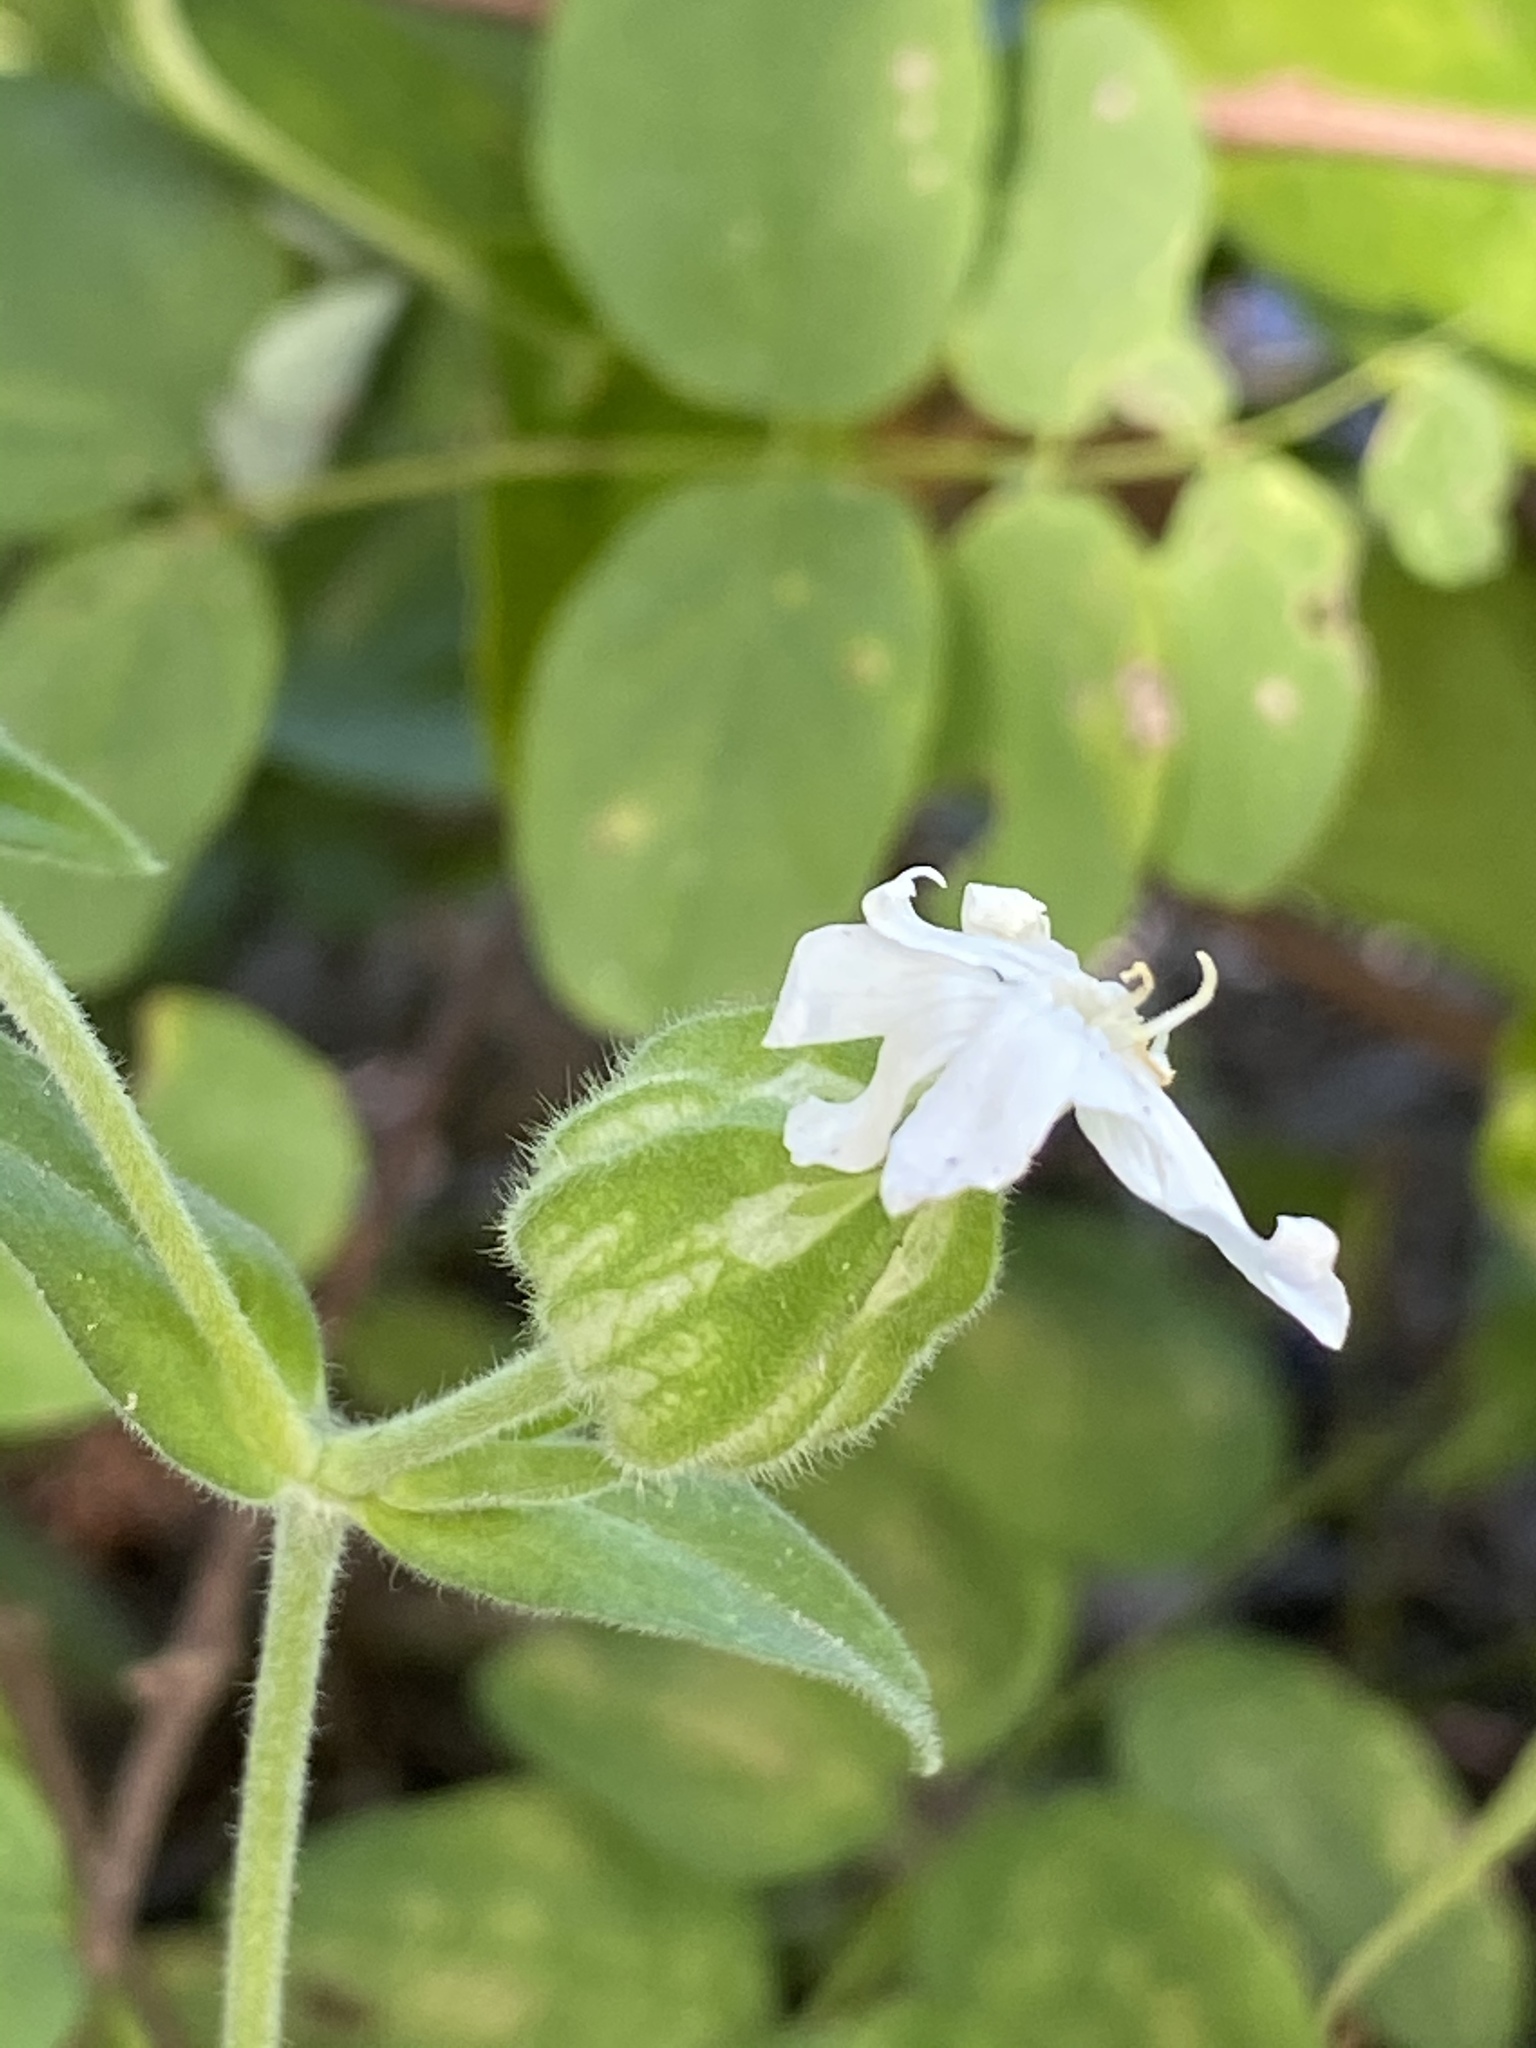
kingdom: Plantae
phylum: Tracheophyta
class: Magnoliopsida
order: Caryophyllales
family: Caryophyllaceae
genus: Silene
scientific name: Silene latifolia
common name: White campion
